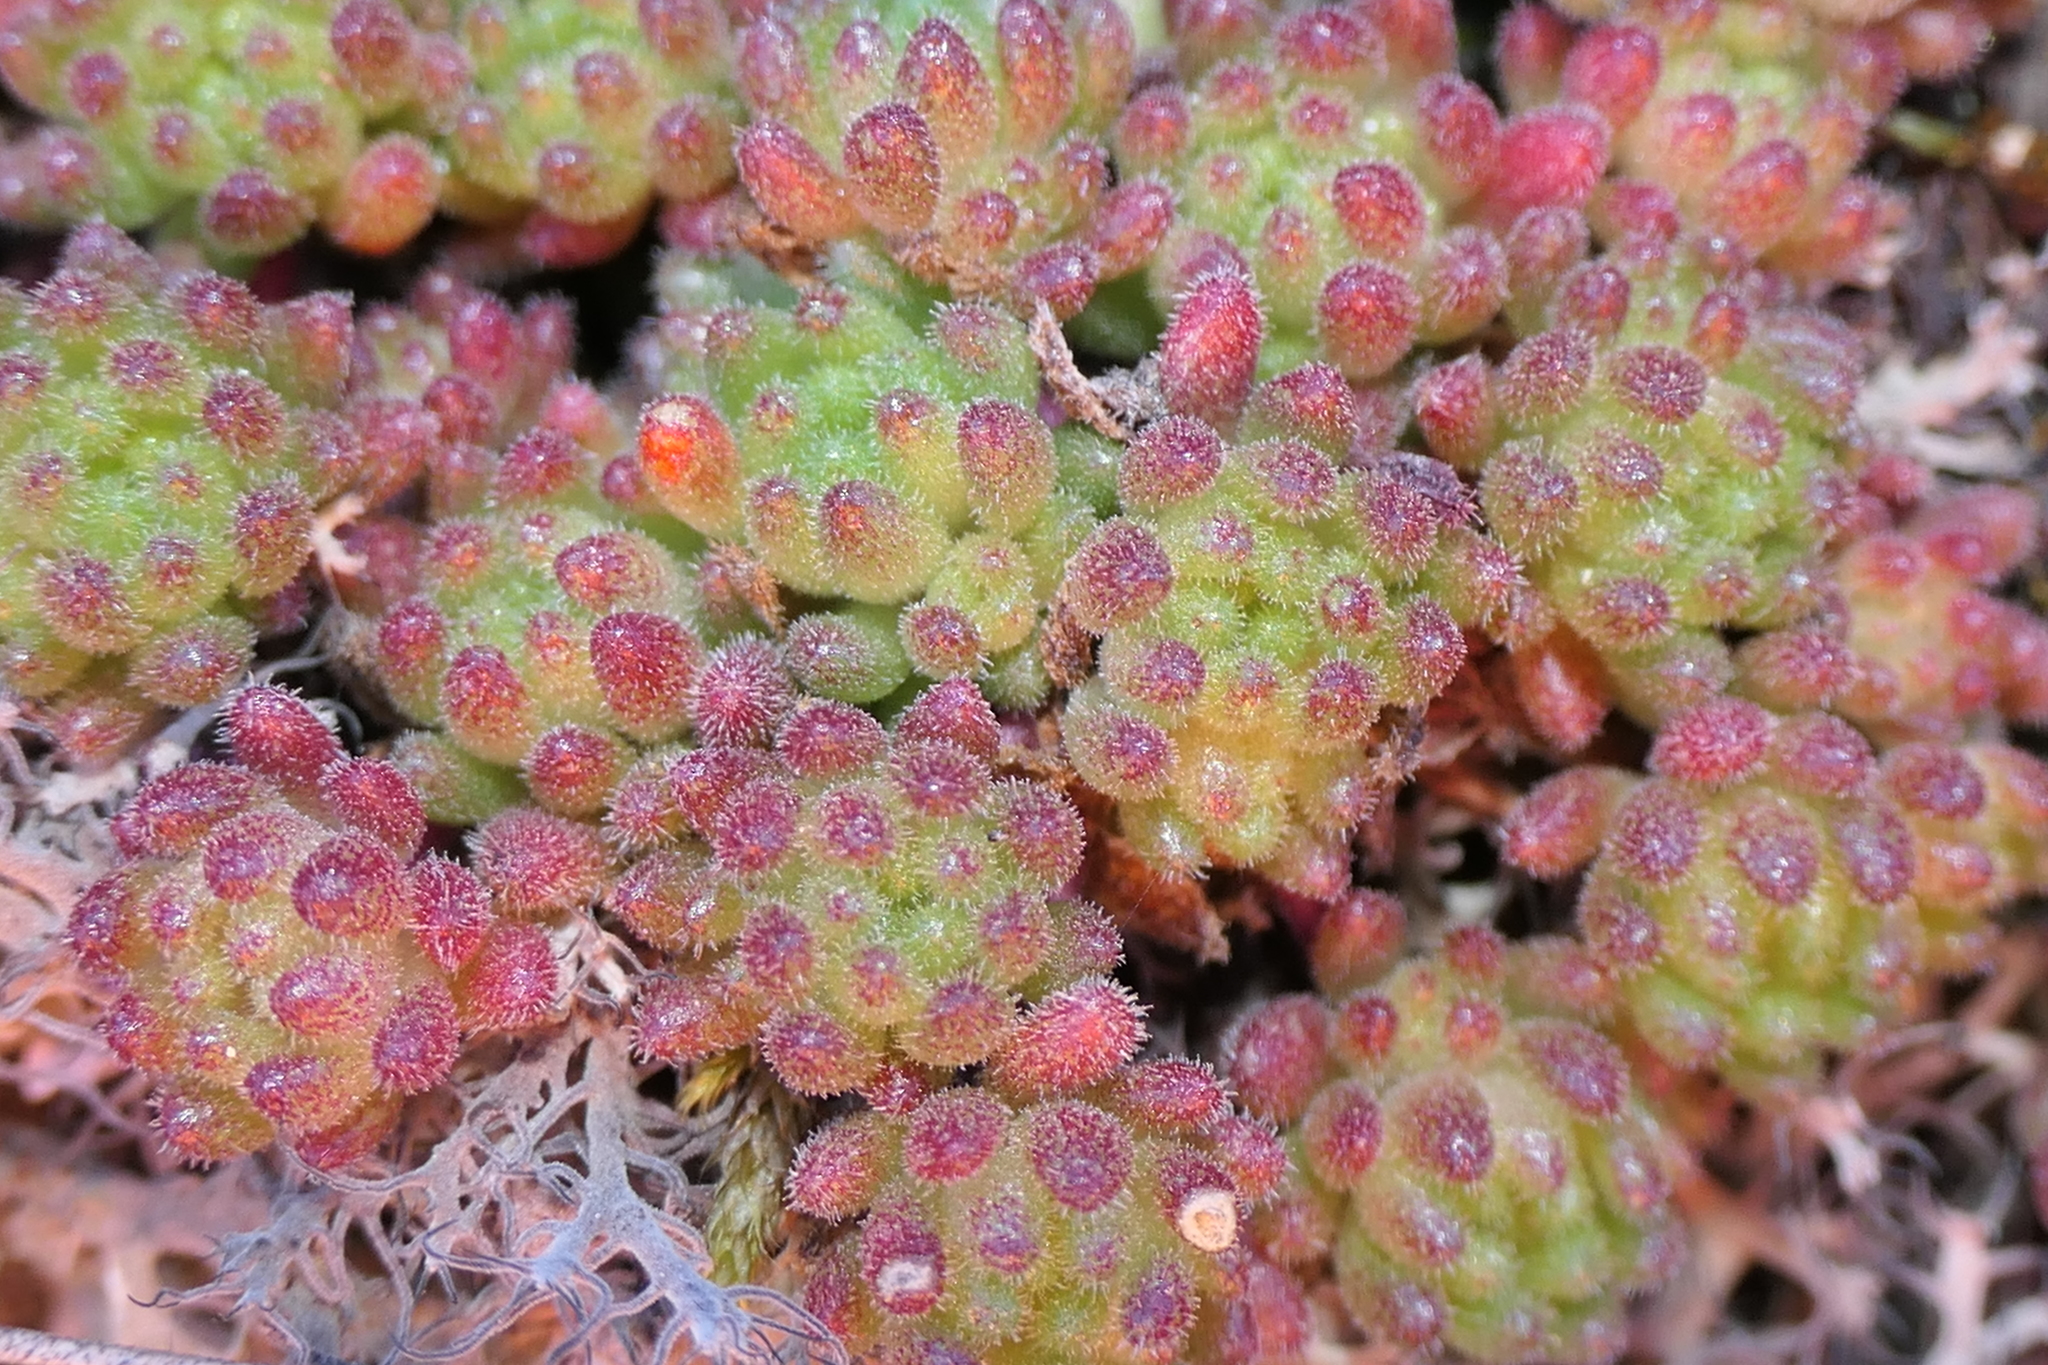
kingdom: Plantae
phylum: Tracheophyta
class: Magnoliopsida
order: Saxifragales
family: Crassulaceae
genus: Sedum
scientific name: Sedum hirsutum
